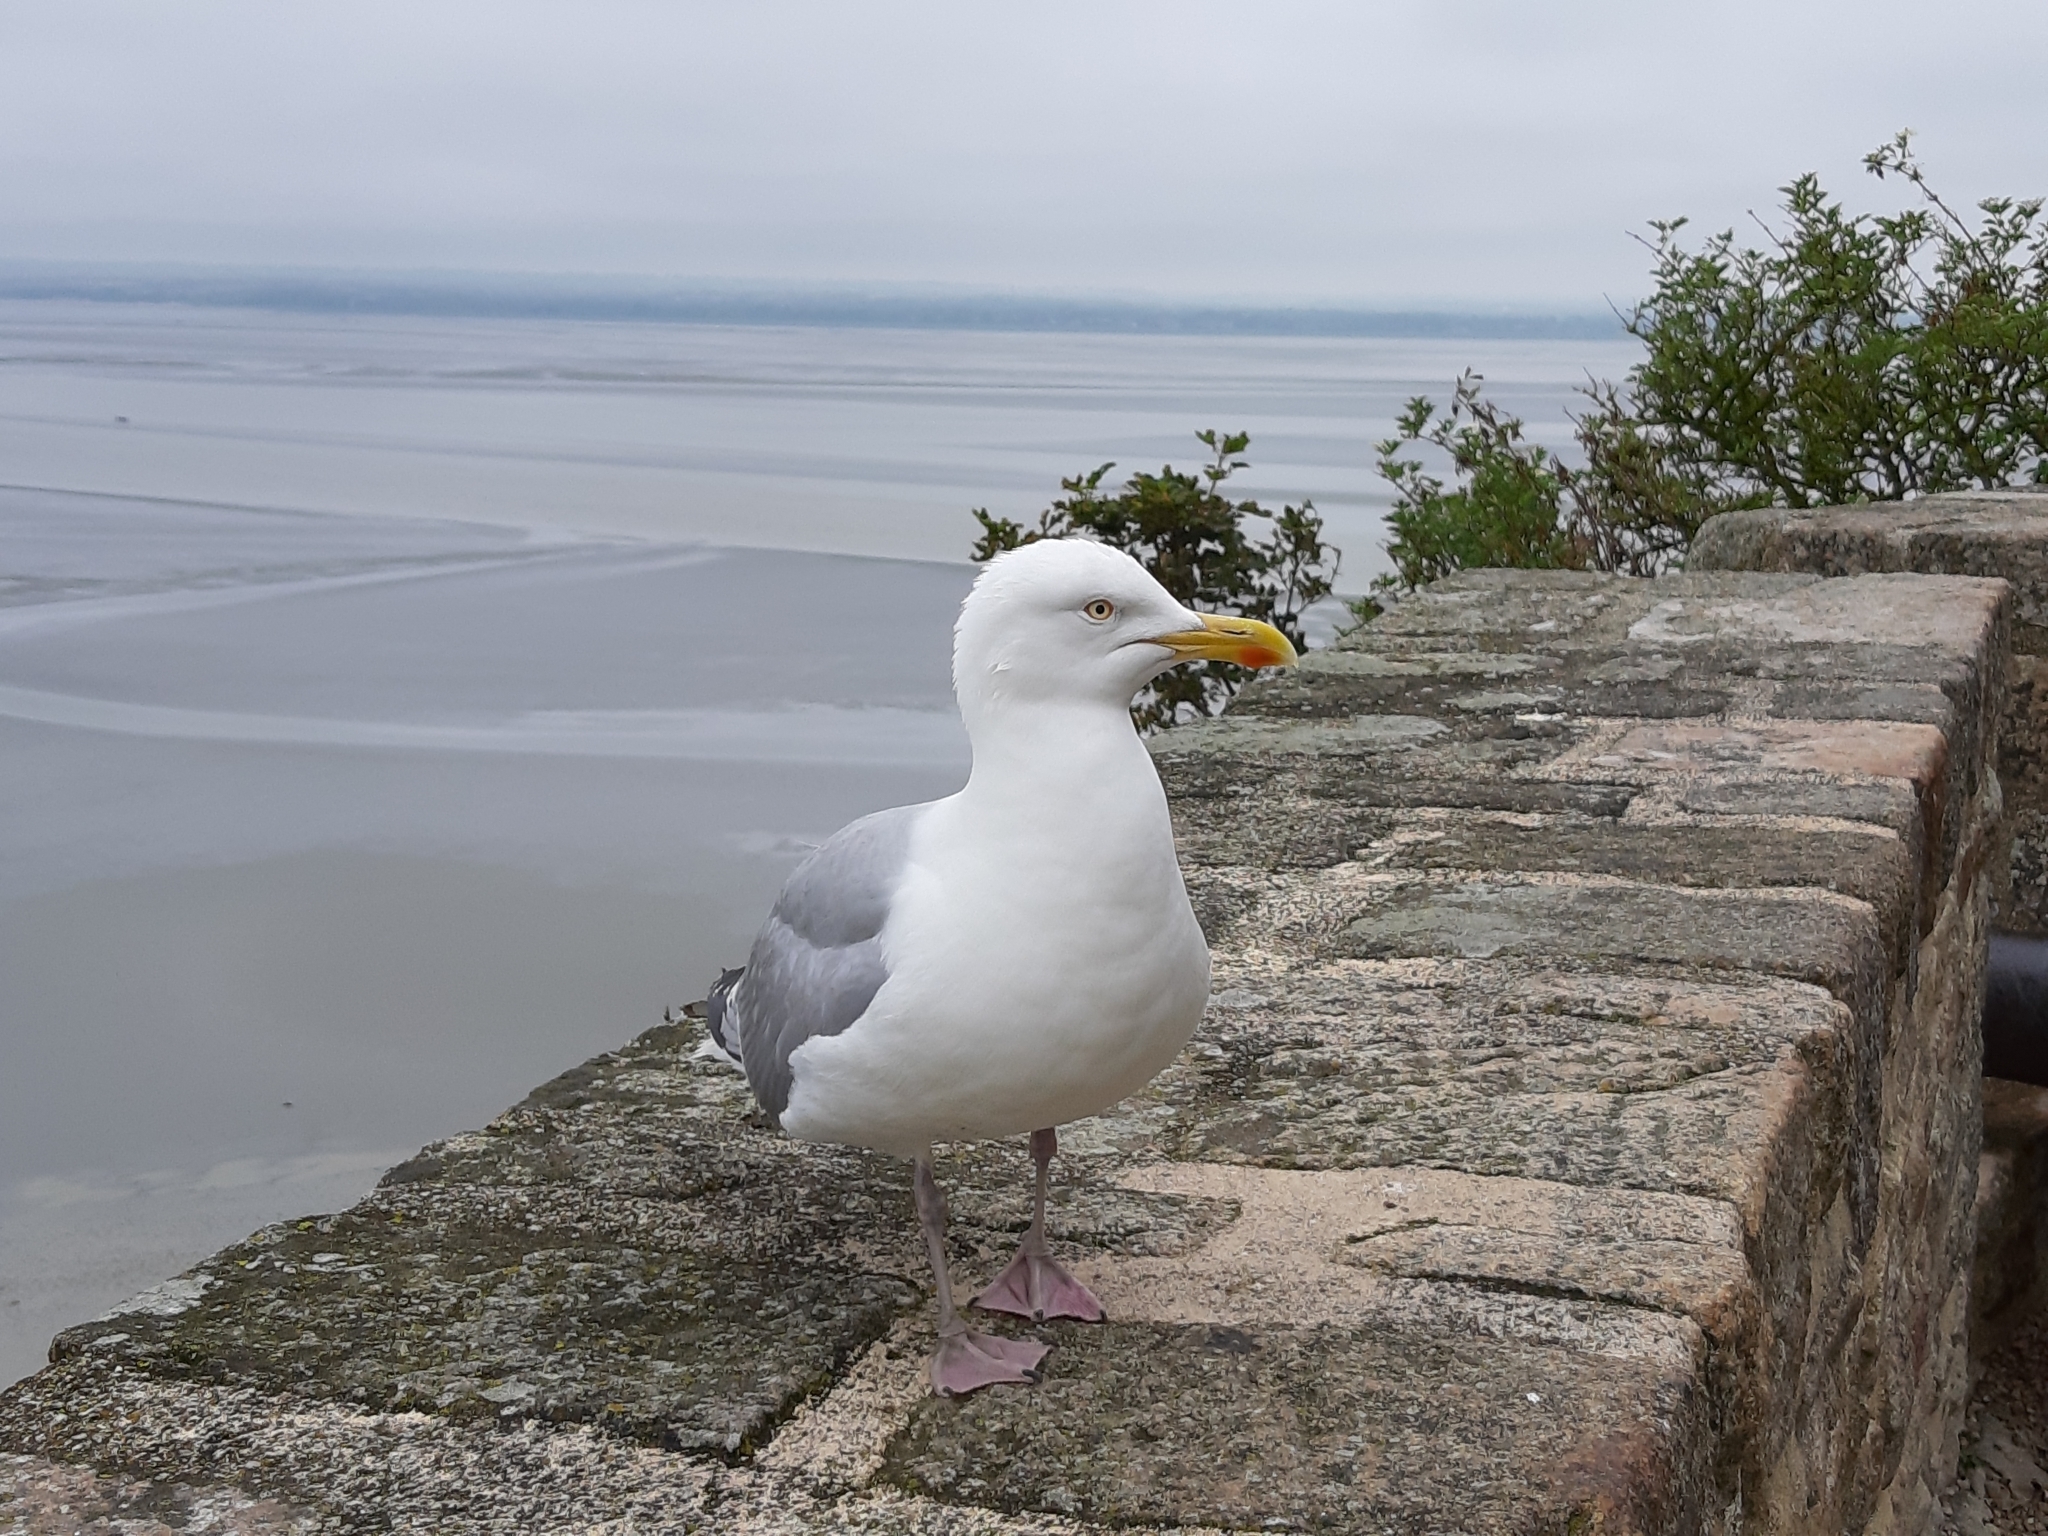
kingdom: Animalia
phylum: Chordata
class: Aves
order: Charadriiformes
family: Laridae
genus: Larus
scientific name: Larus argentatus
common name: Herring gull
